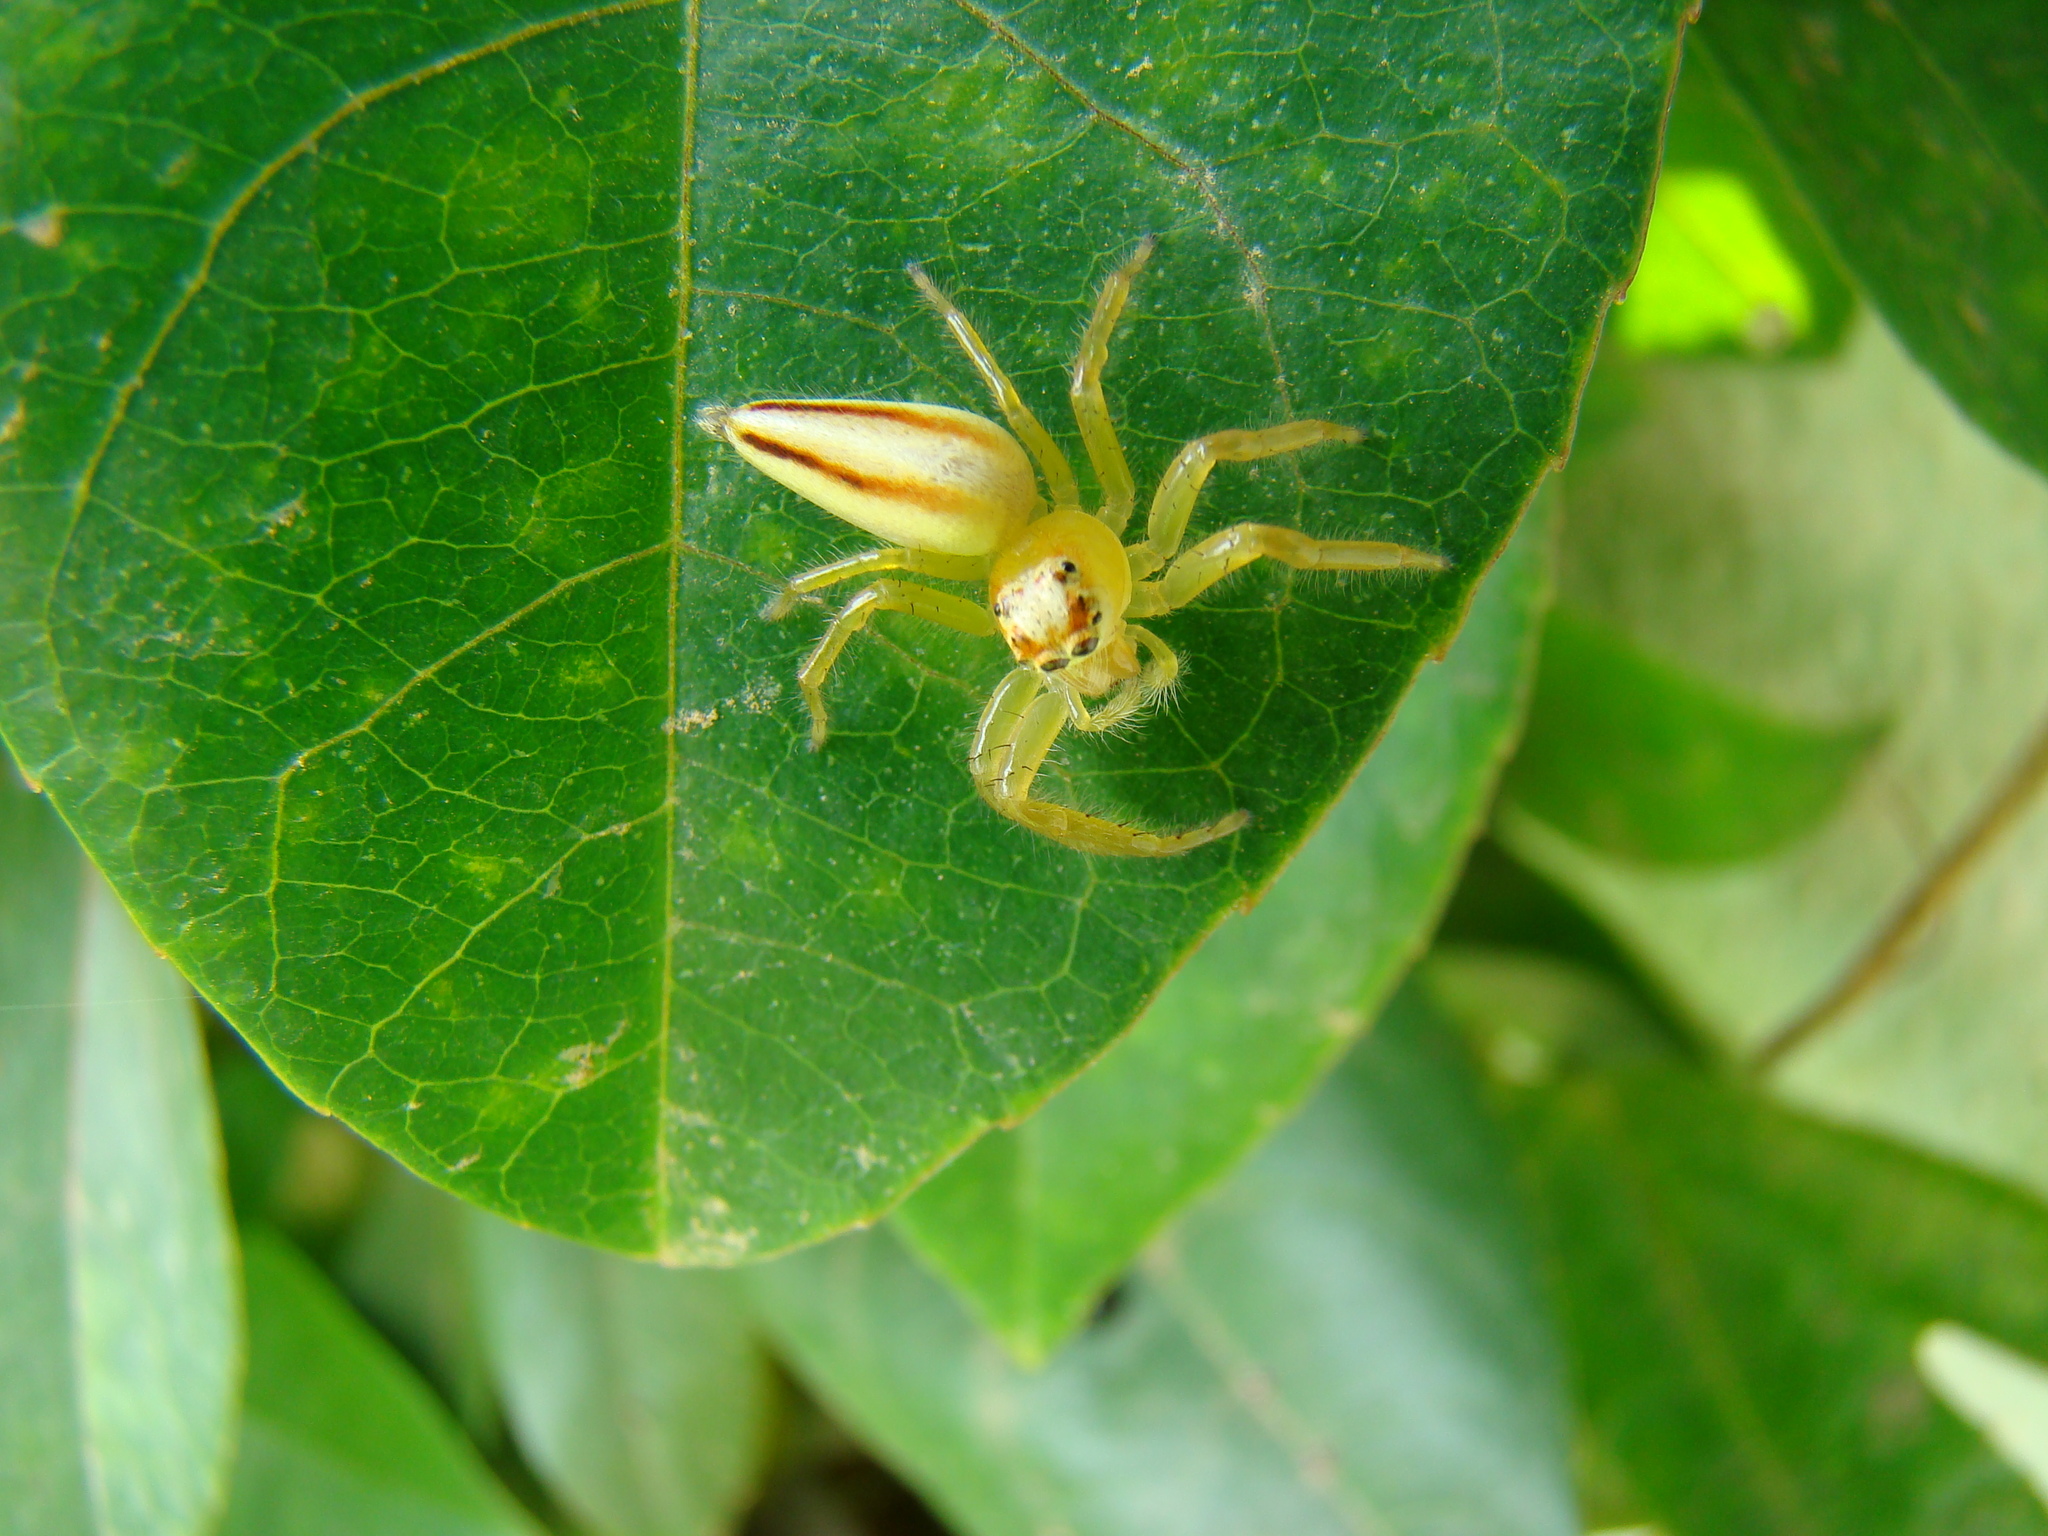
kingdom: Animalia
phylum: Arthropoda
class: Arachnida
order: Araneae
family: Salticidae
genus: Telamonia
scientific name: Telamonia dimidiata
